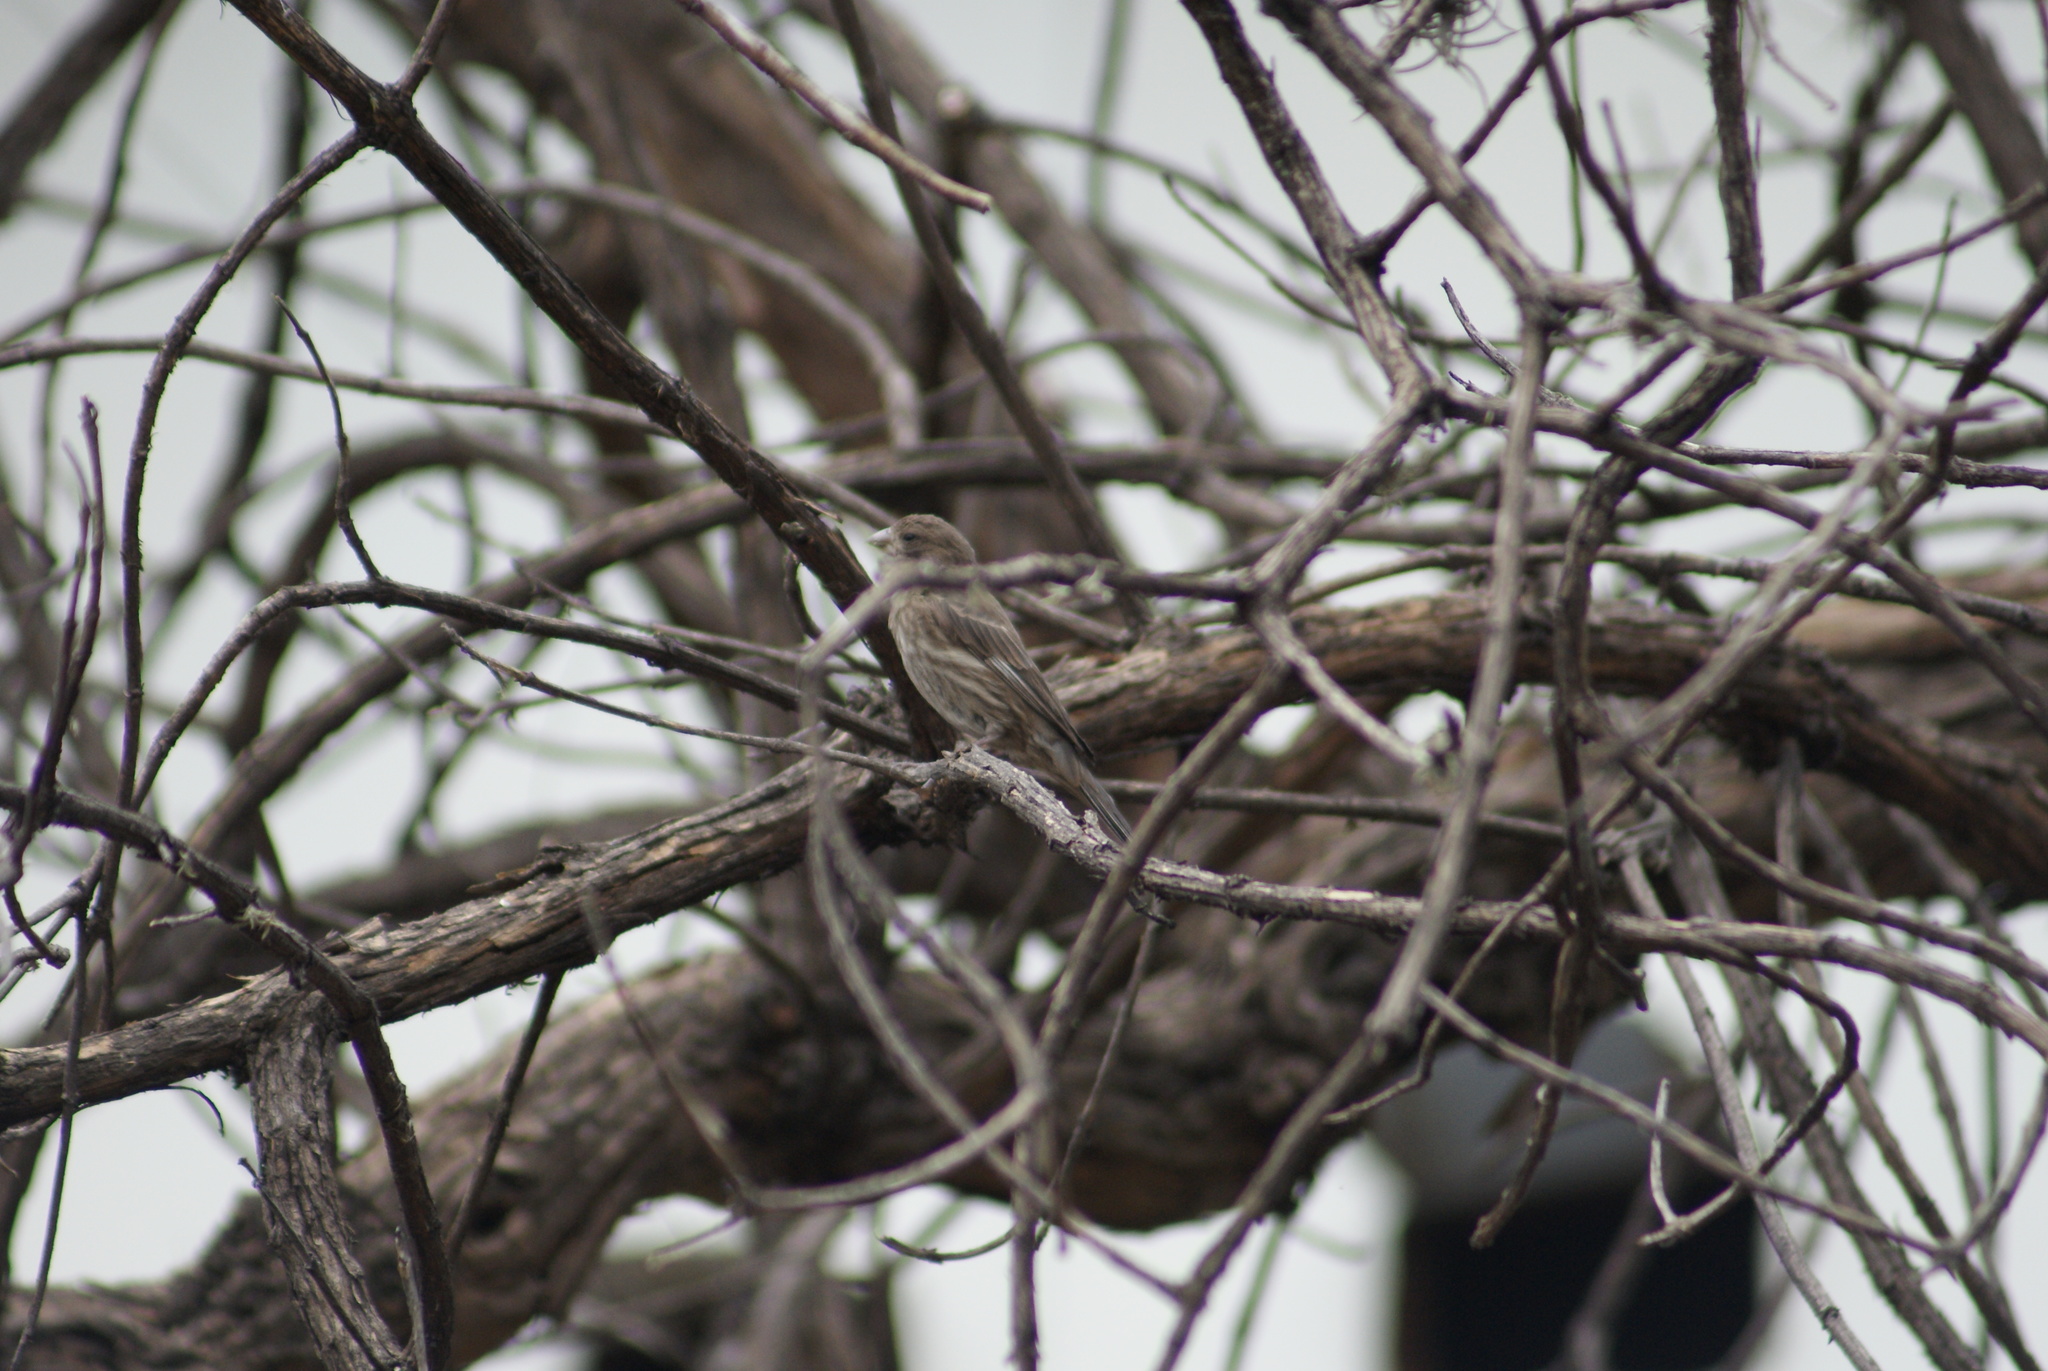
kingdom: Animalia
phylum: Chordata
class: Aves
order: Passeriformes
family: Fringillidae
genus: Haemorhous
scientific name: Haemorhous mexicanus
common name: House finch
